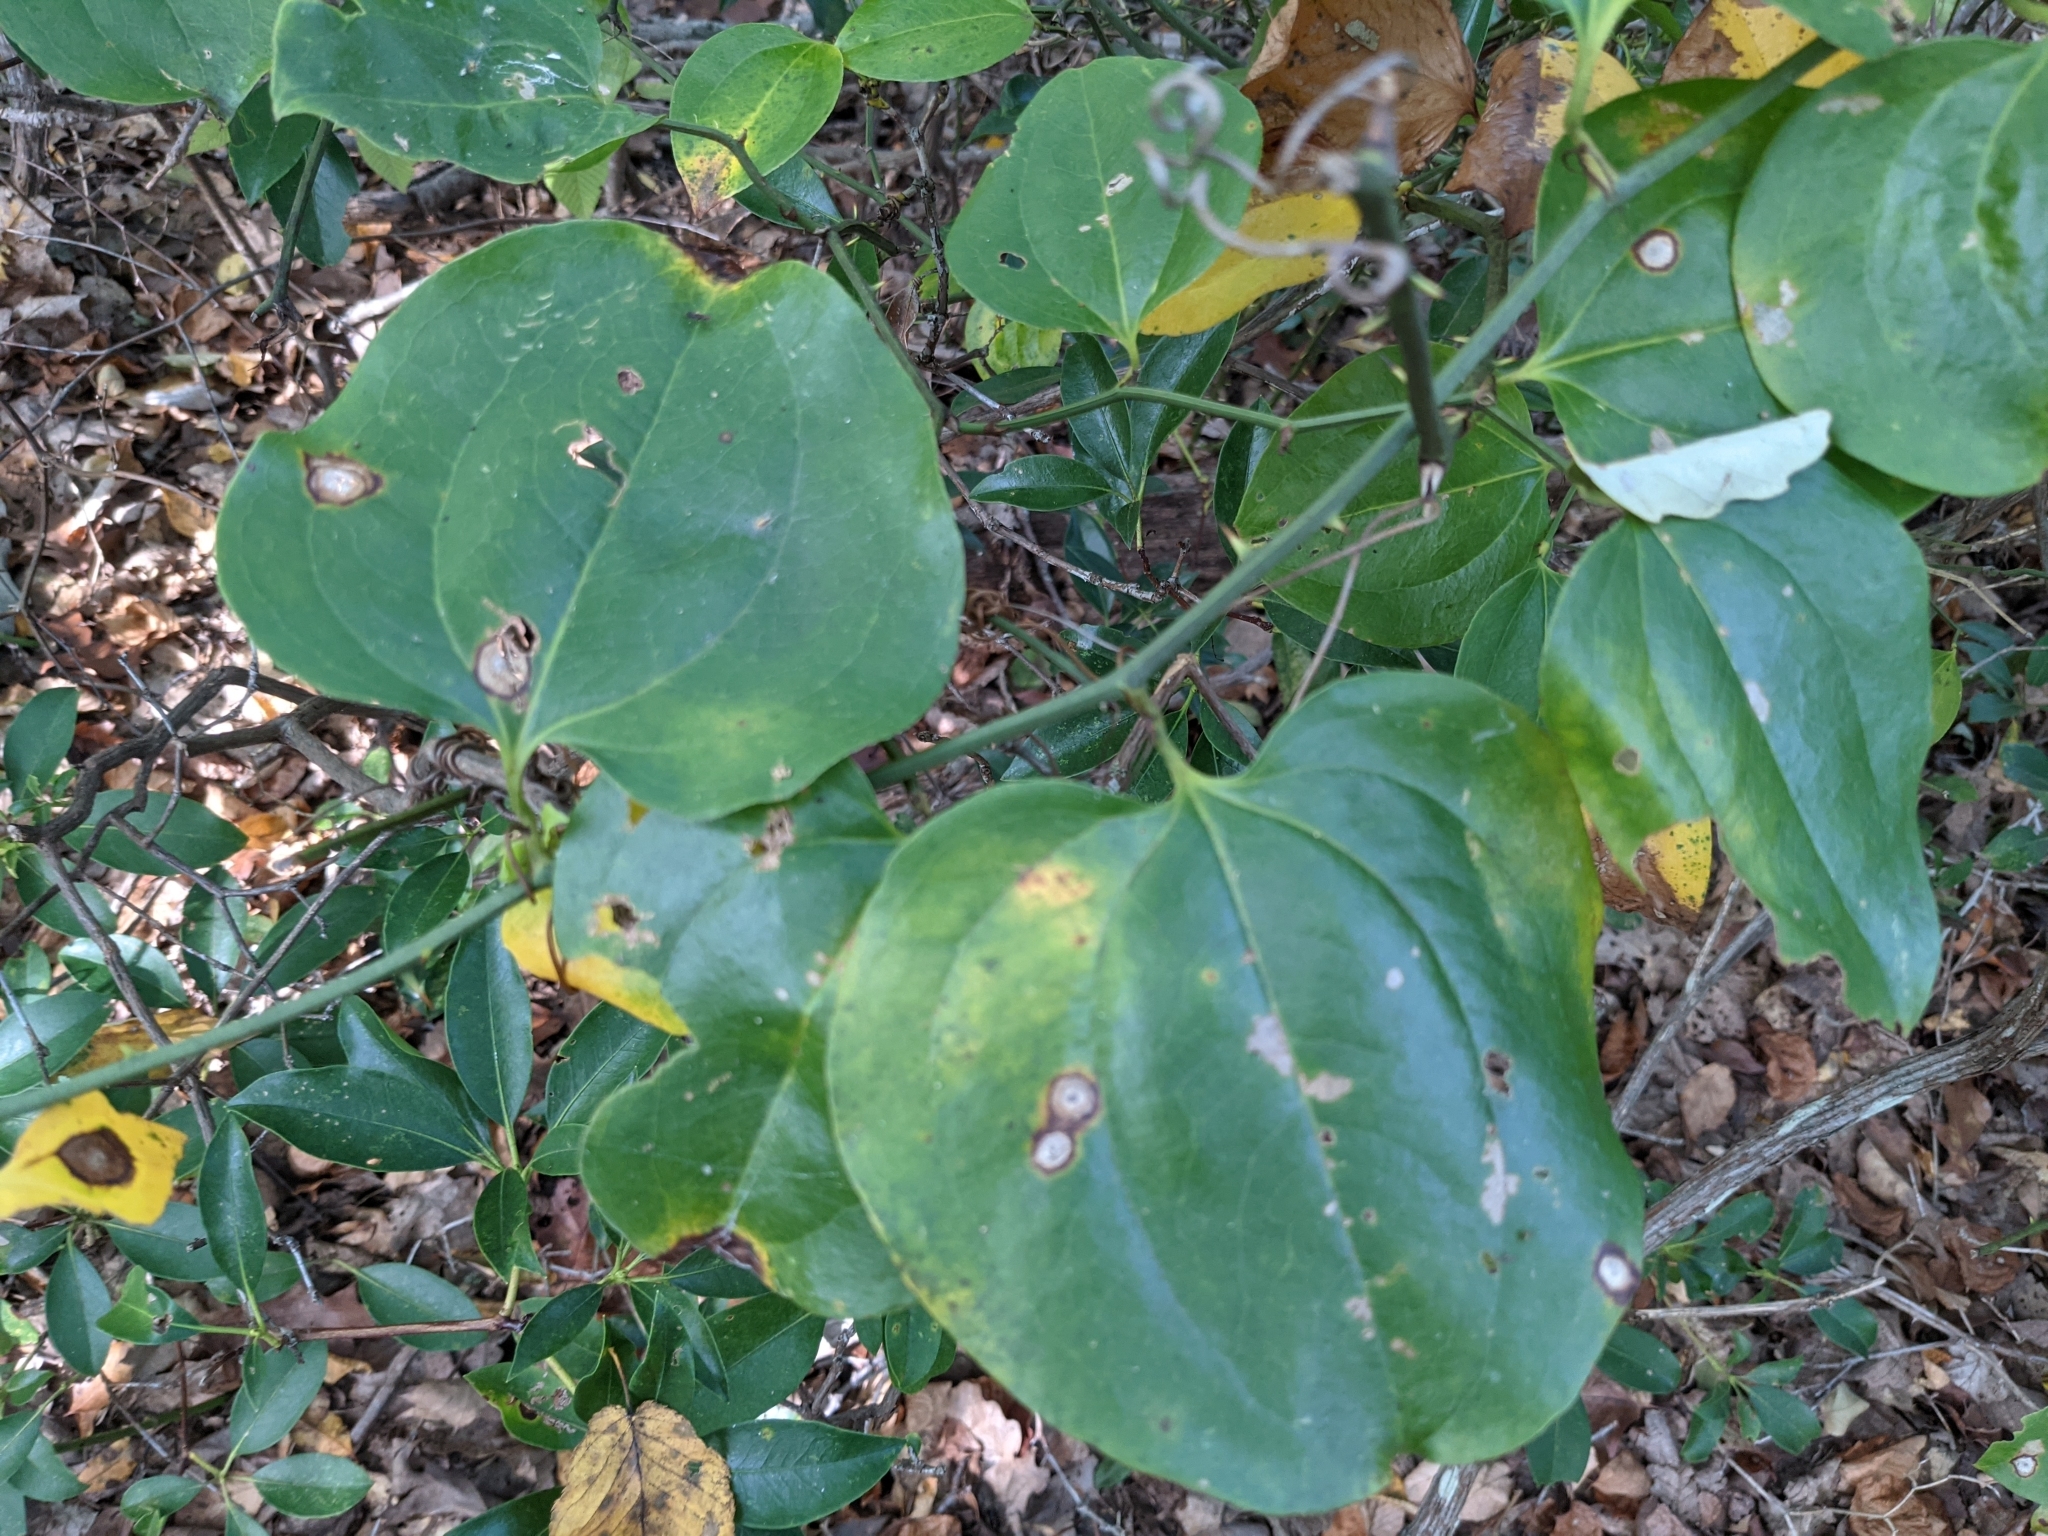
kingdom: Plantae
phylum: Tracheophyta
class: Liliopsida
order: Liliales
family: Smilacaceae
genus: Smilax
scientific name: Smilax rotundifolia
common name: Bullbriar
